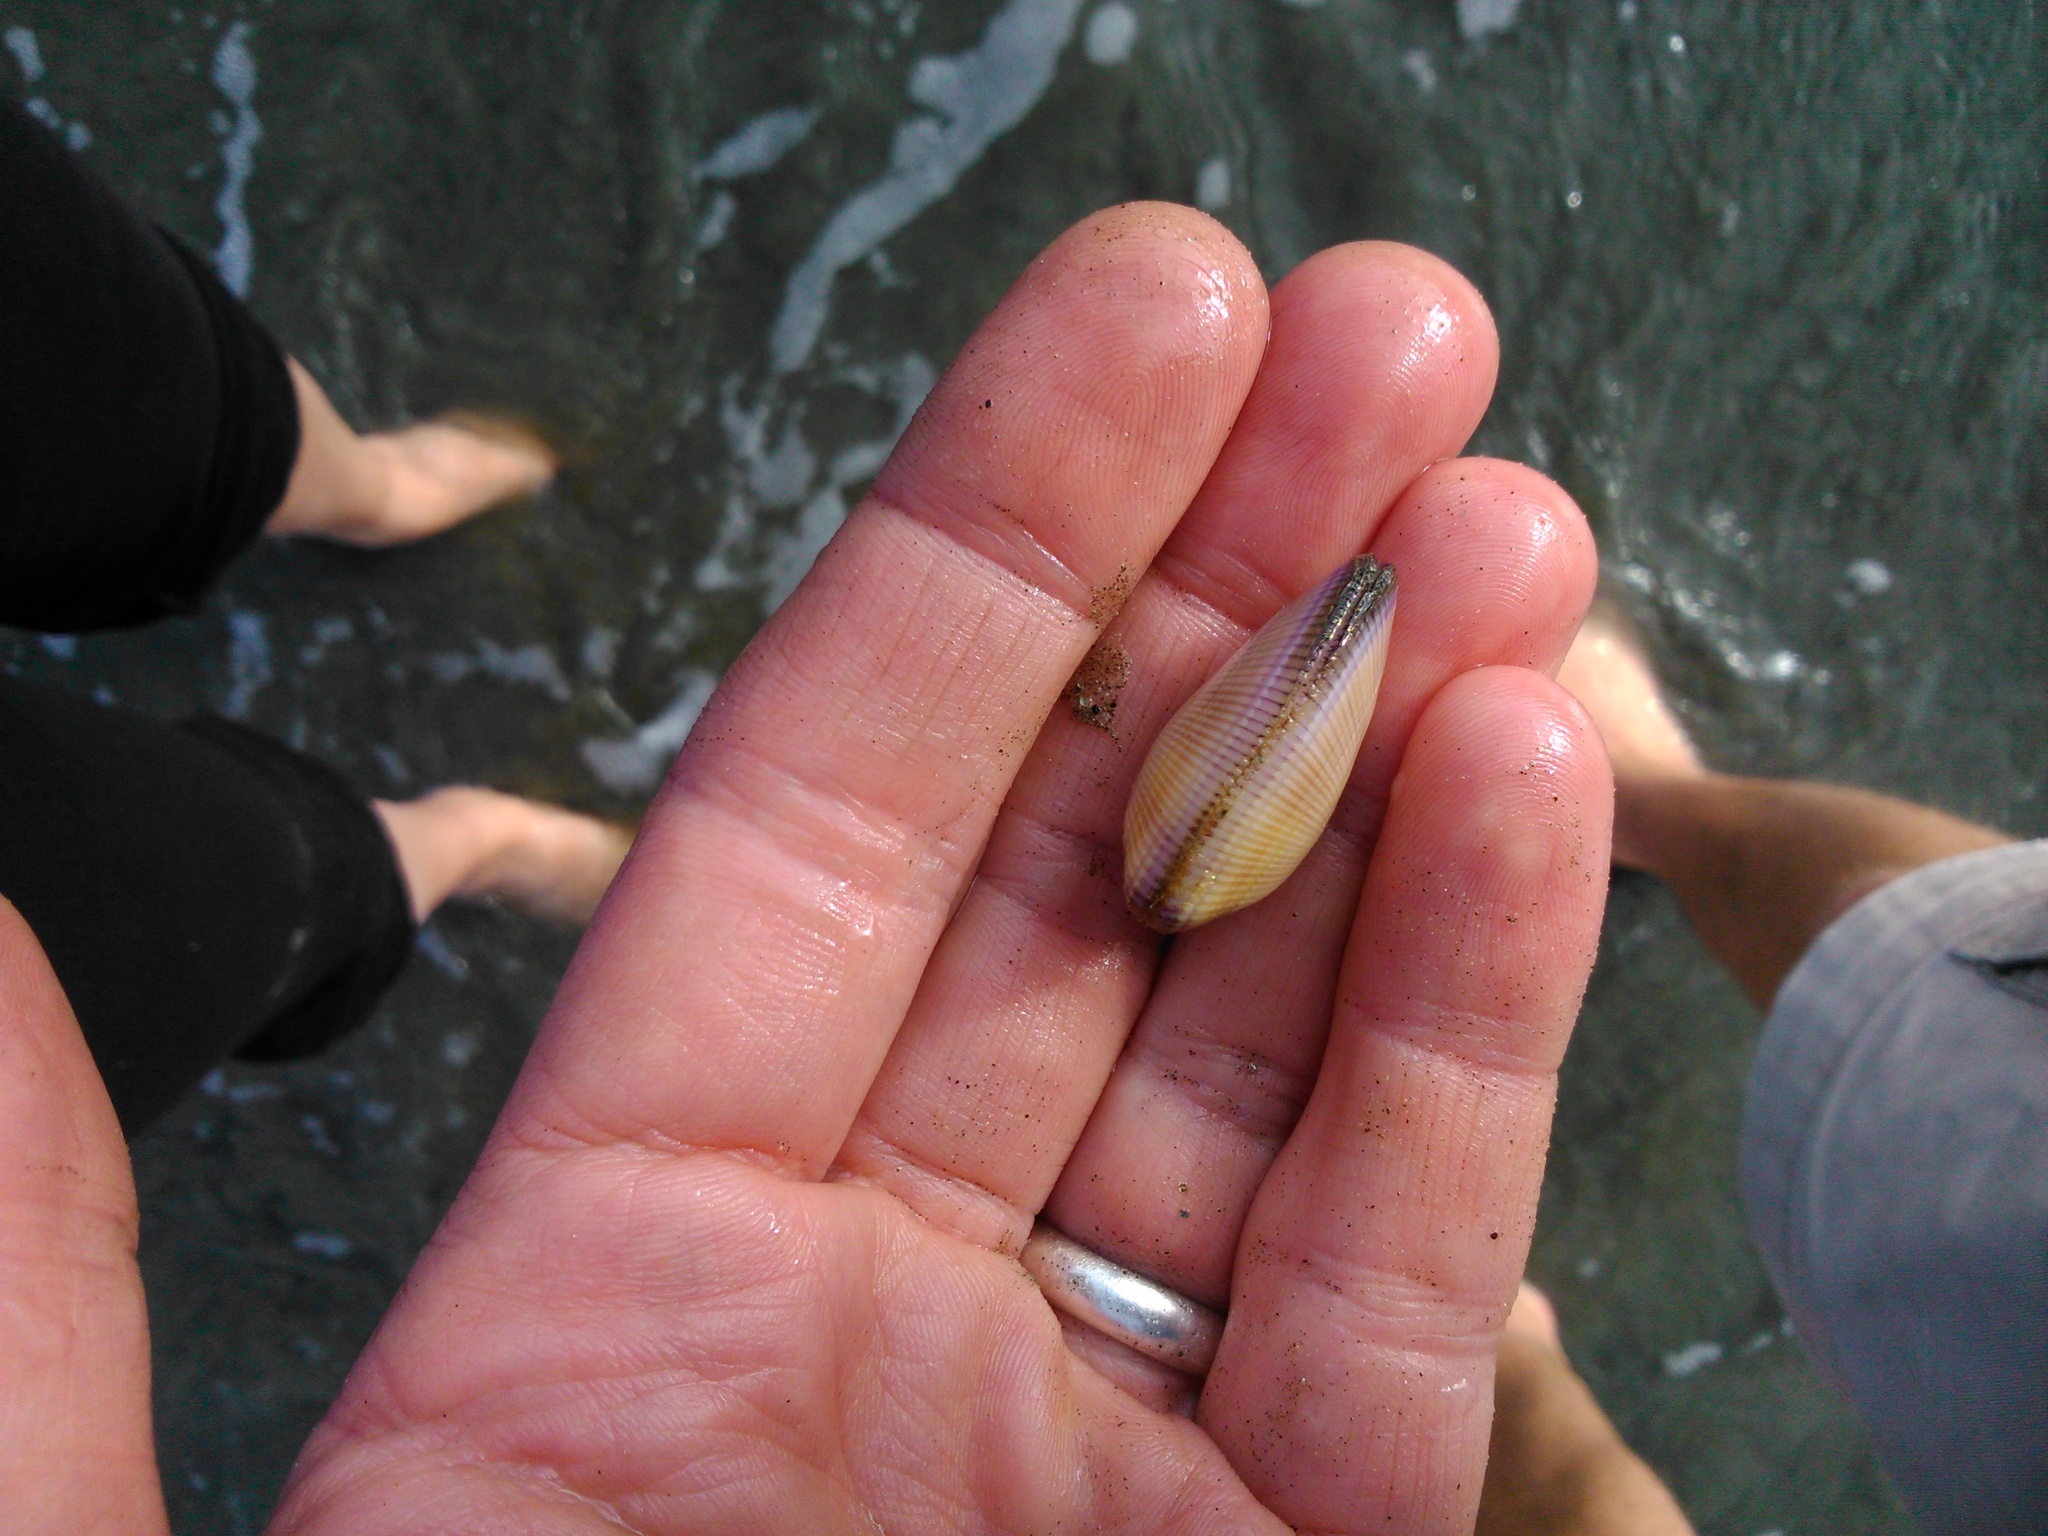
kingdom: Animalia
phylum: Mollusca
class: Bivalvia
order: Cardiida
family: Donacidae
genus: Donax
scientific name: Donax punctatostriatus
